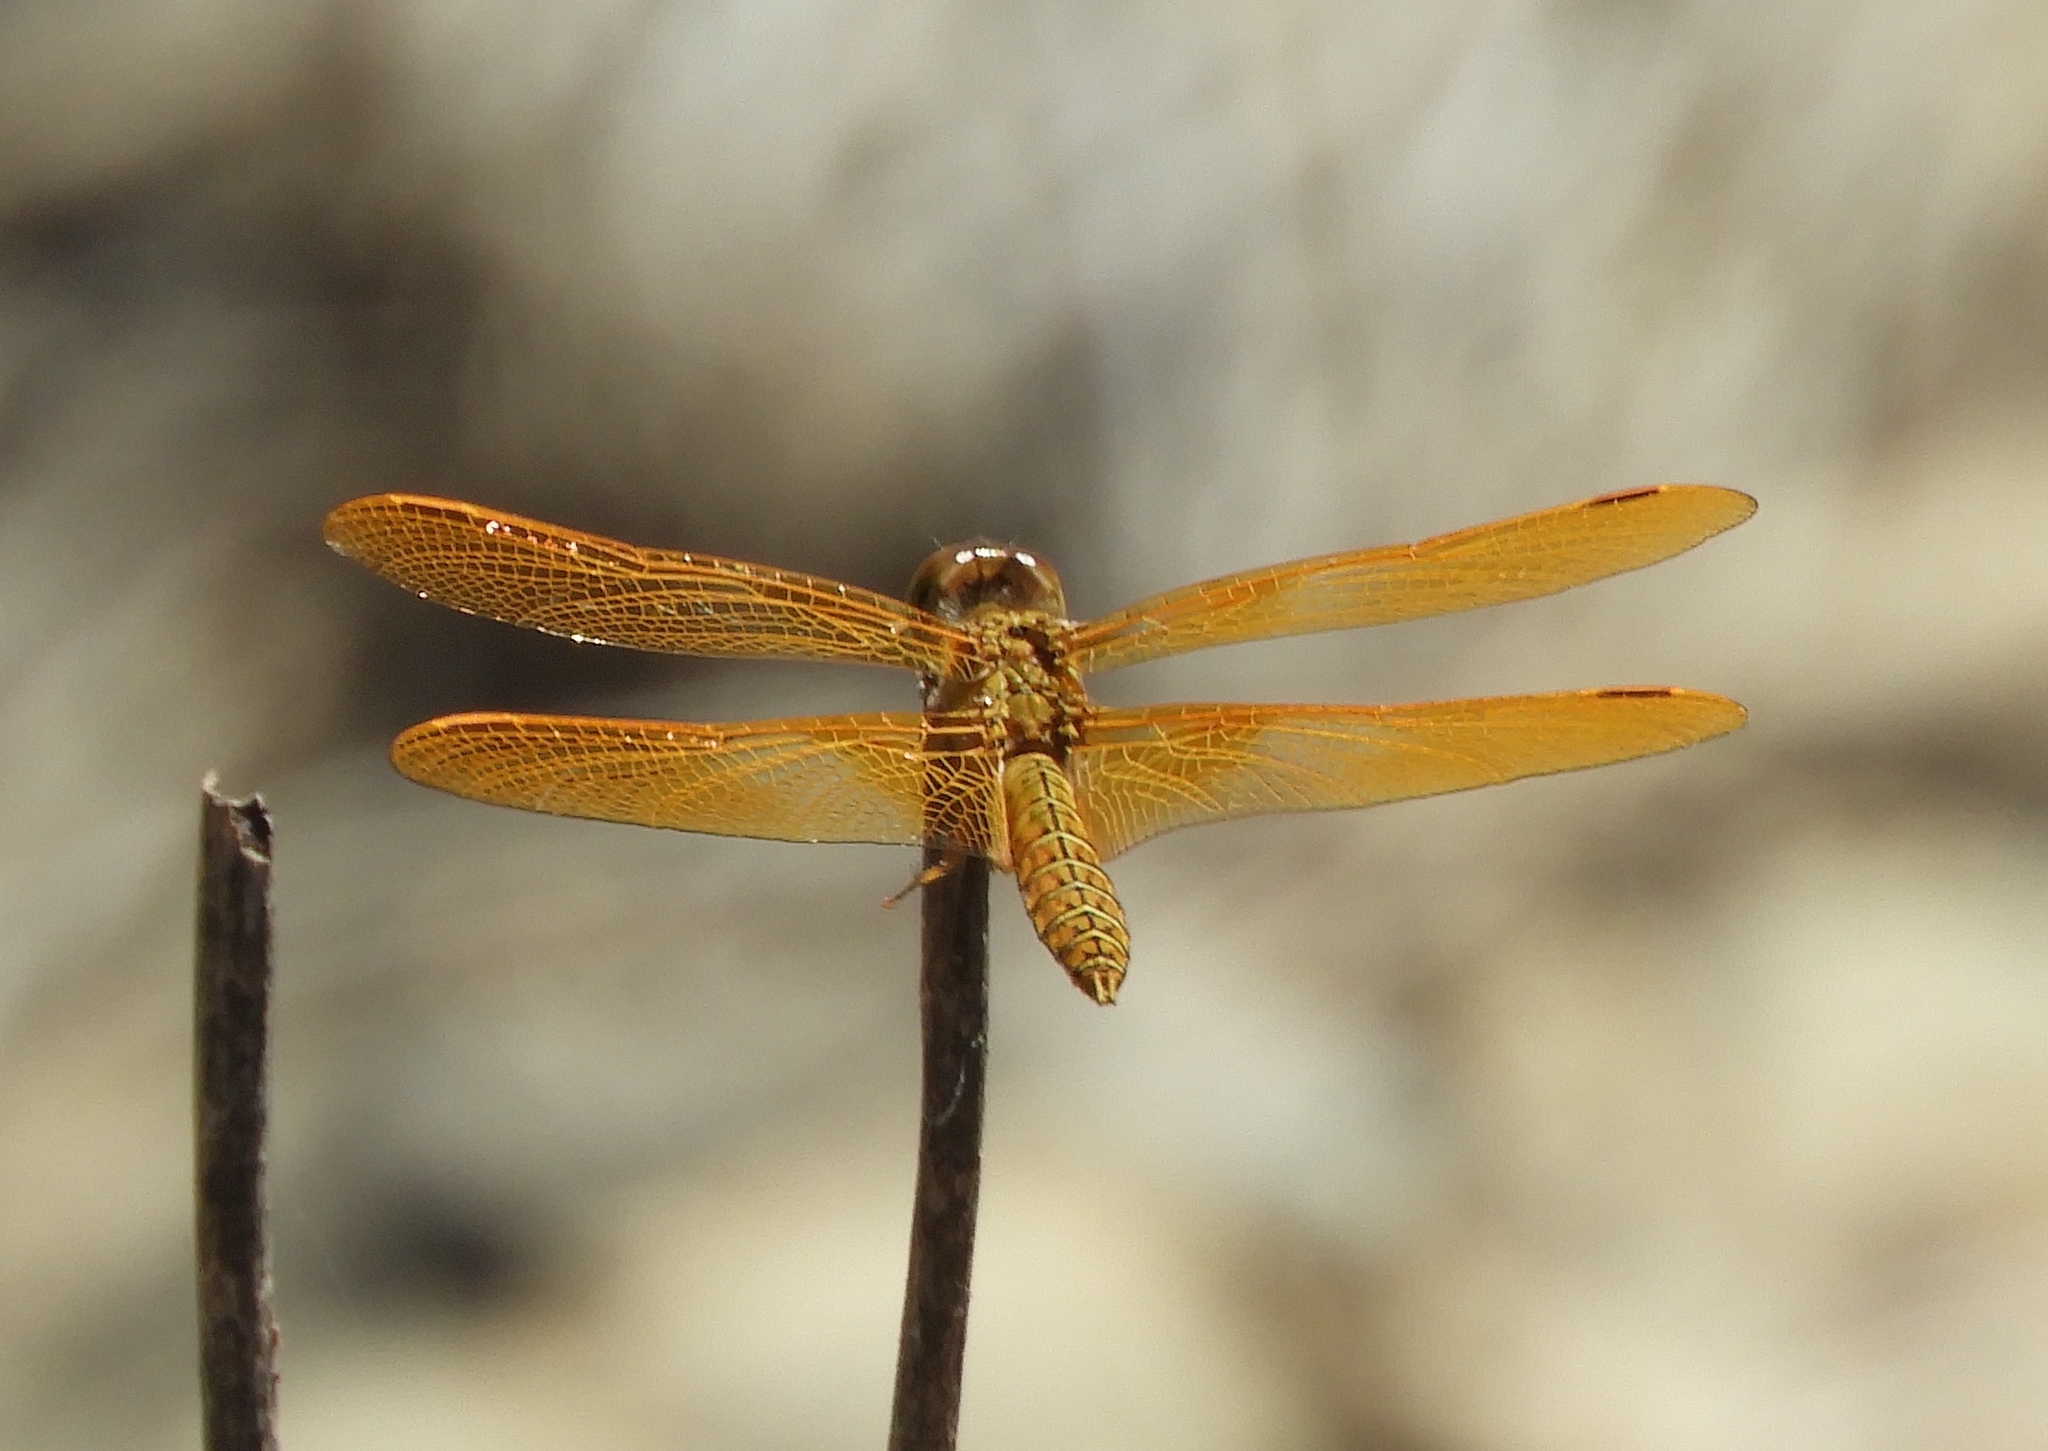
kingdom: Animalia
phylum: Arthropoda
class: Insecta
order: Odonata
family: Libellulidae
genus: Perithemis
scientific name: Perithemis intensa
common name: Mexican amberwing
